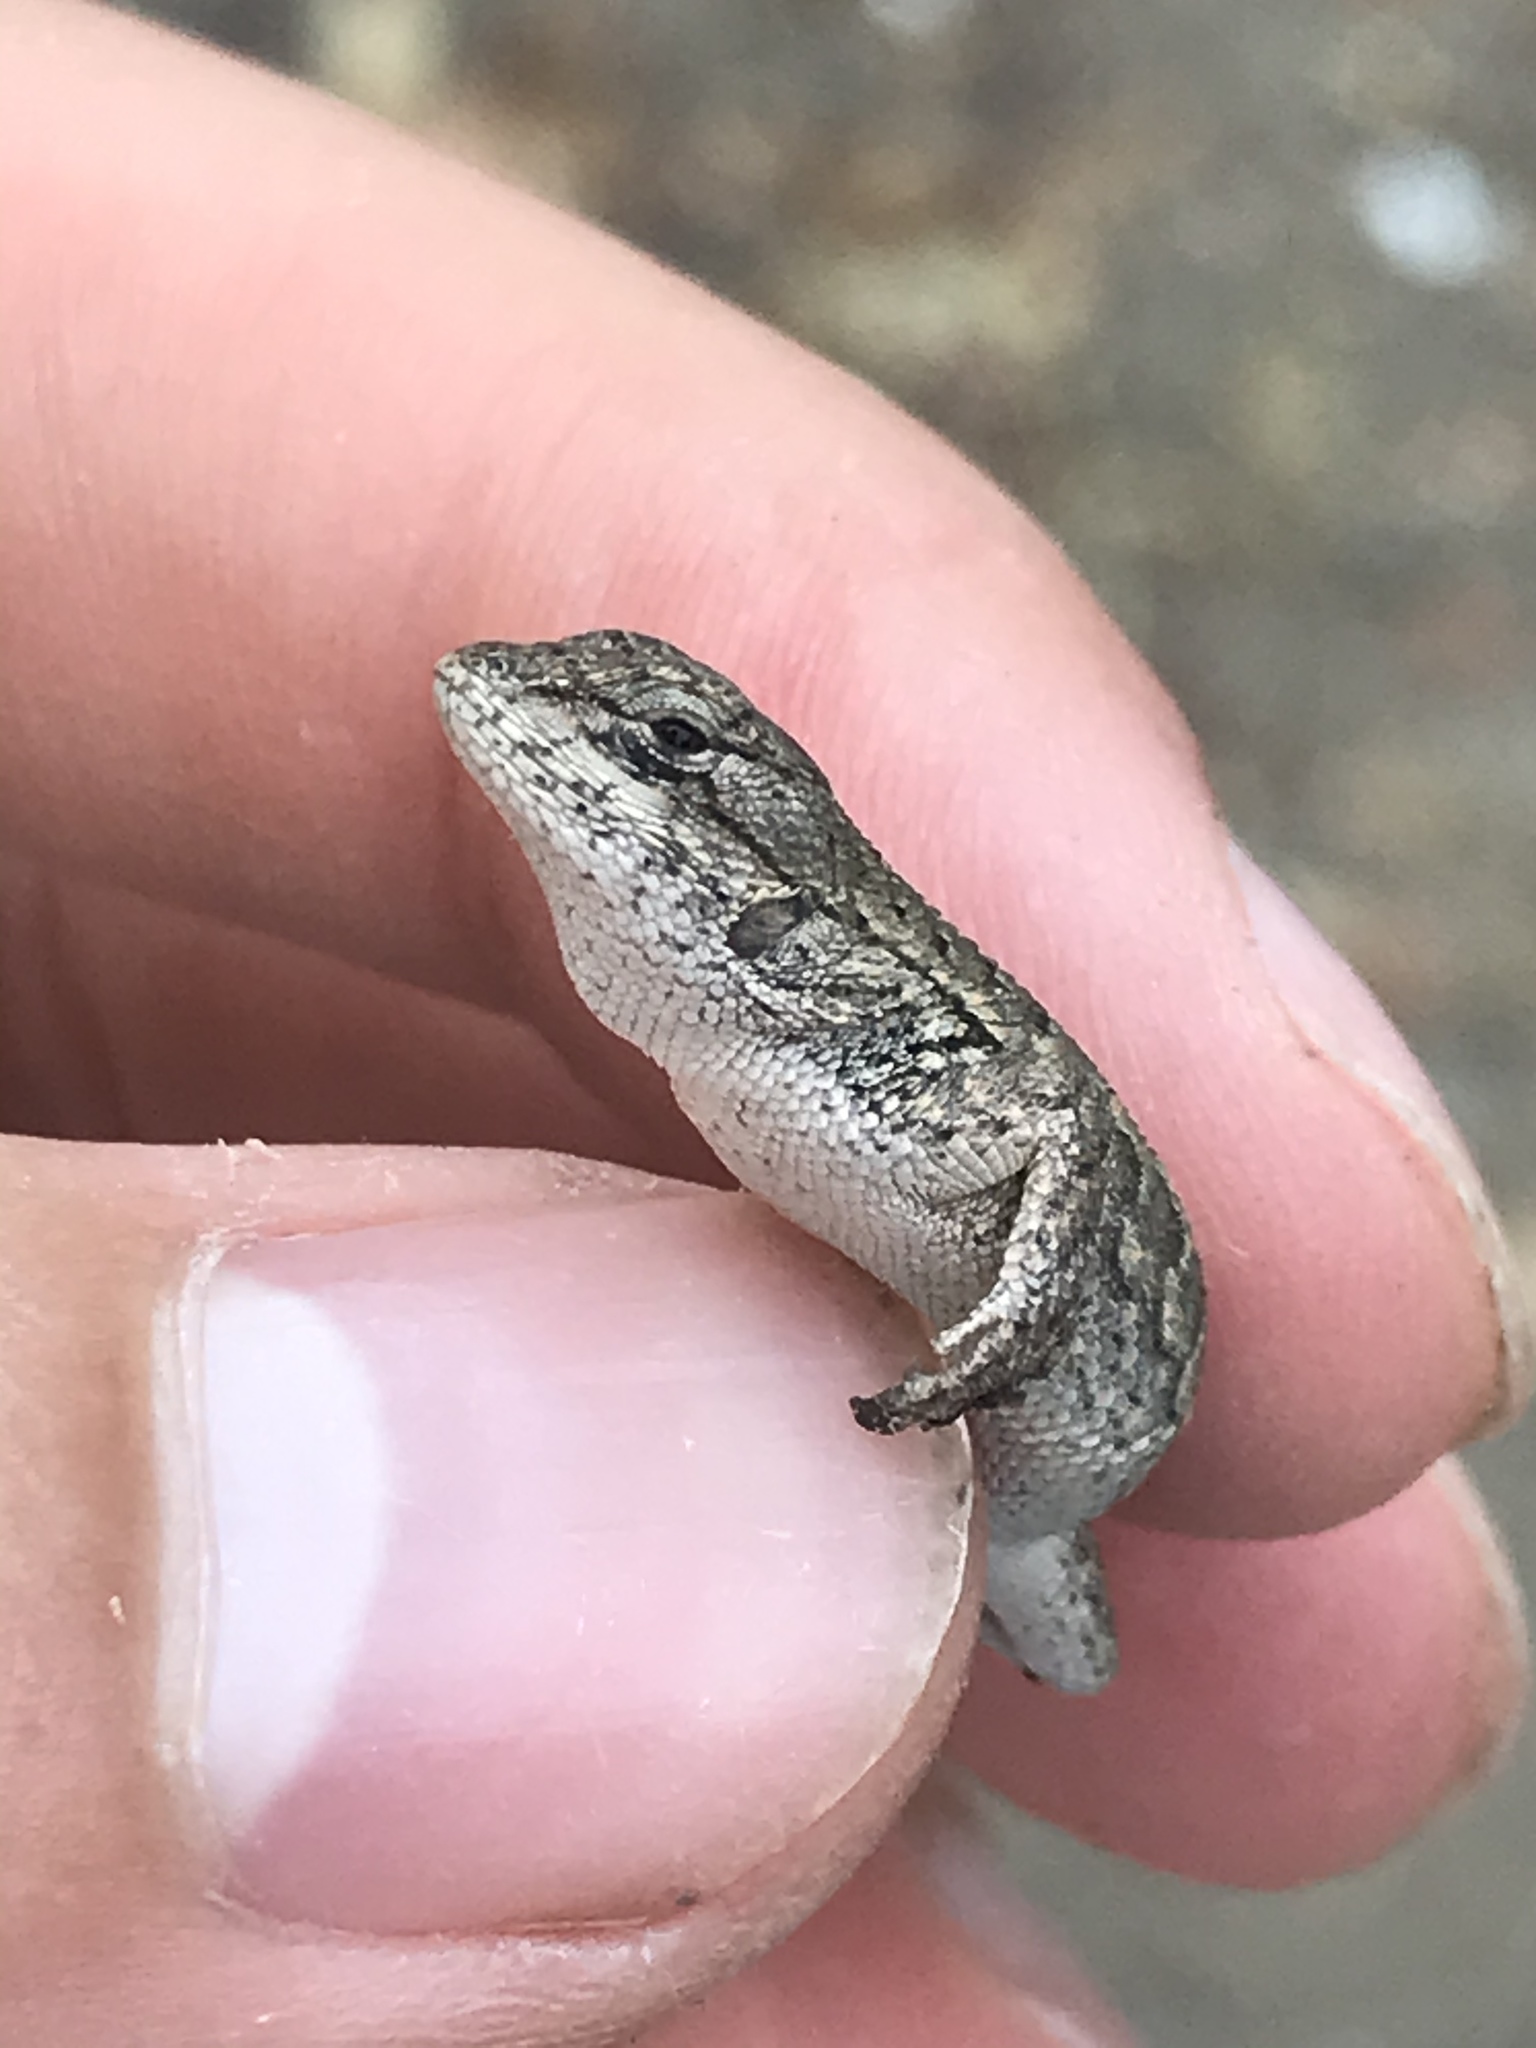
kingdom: Animalia
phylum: Chordata
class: Squamata
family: Phrynosomatidae
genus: Sceloporus
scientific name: Sceloporus occidentalis
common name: Western fence lizard
